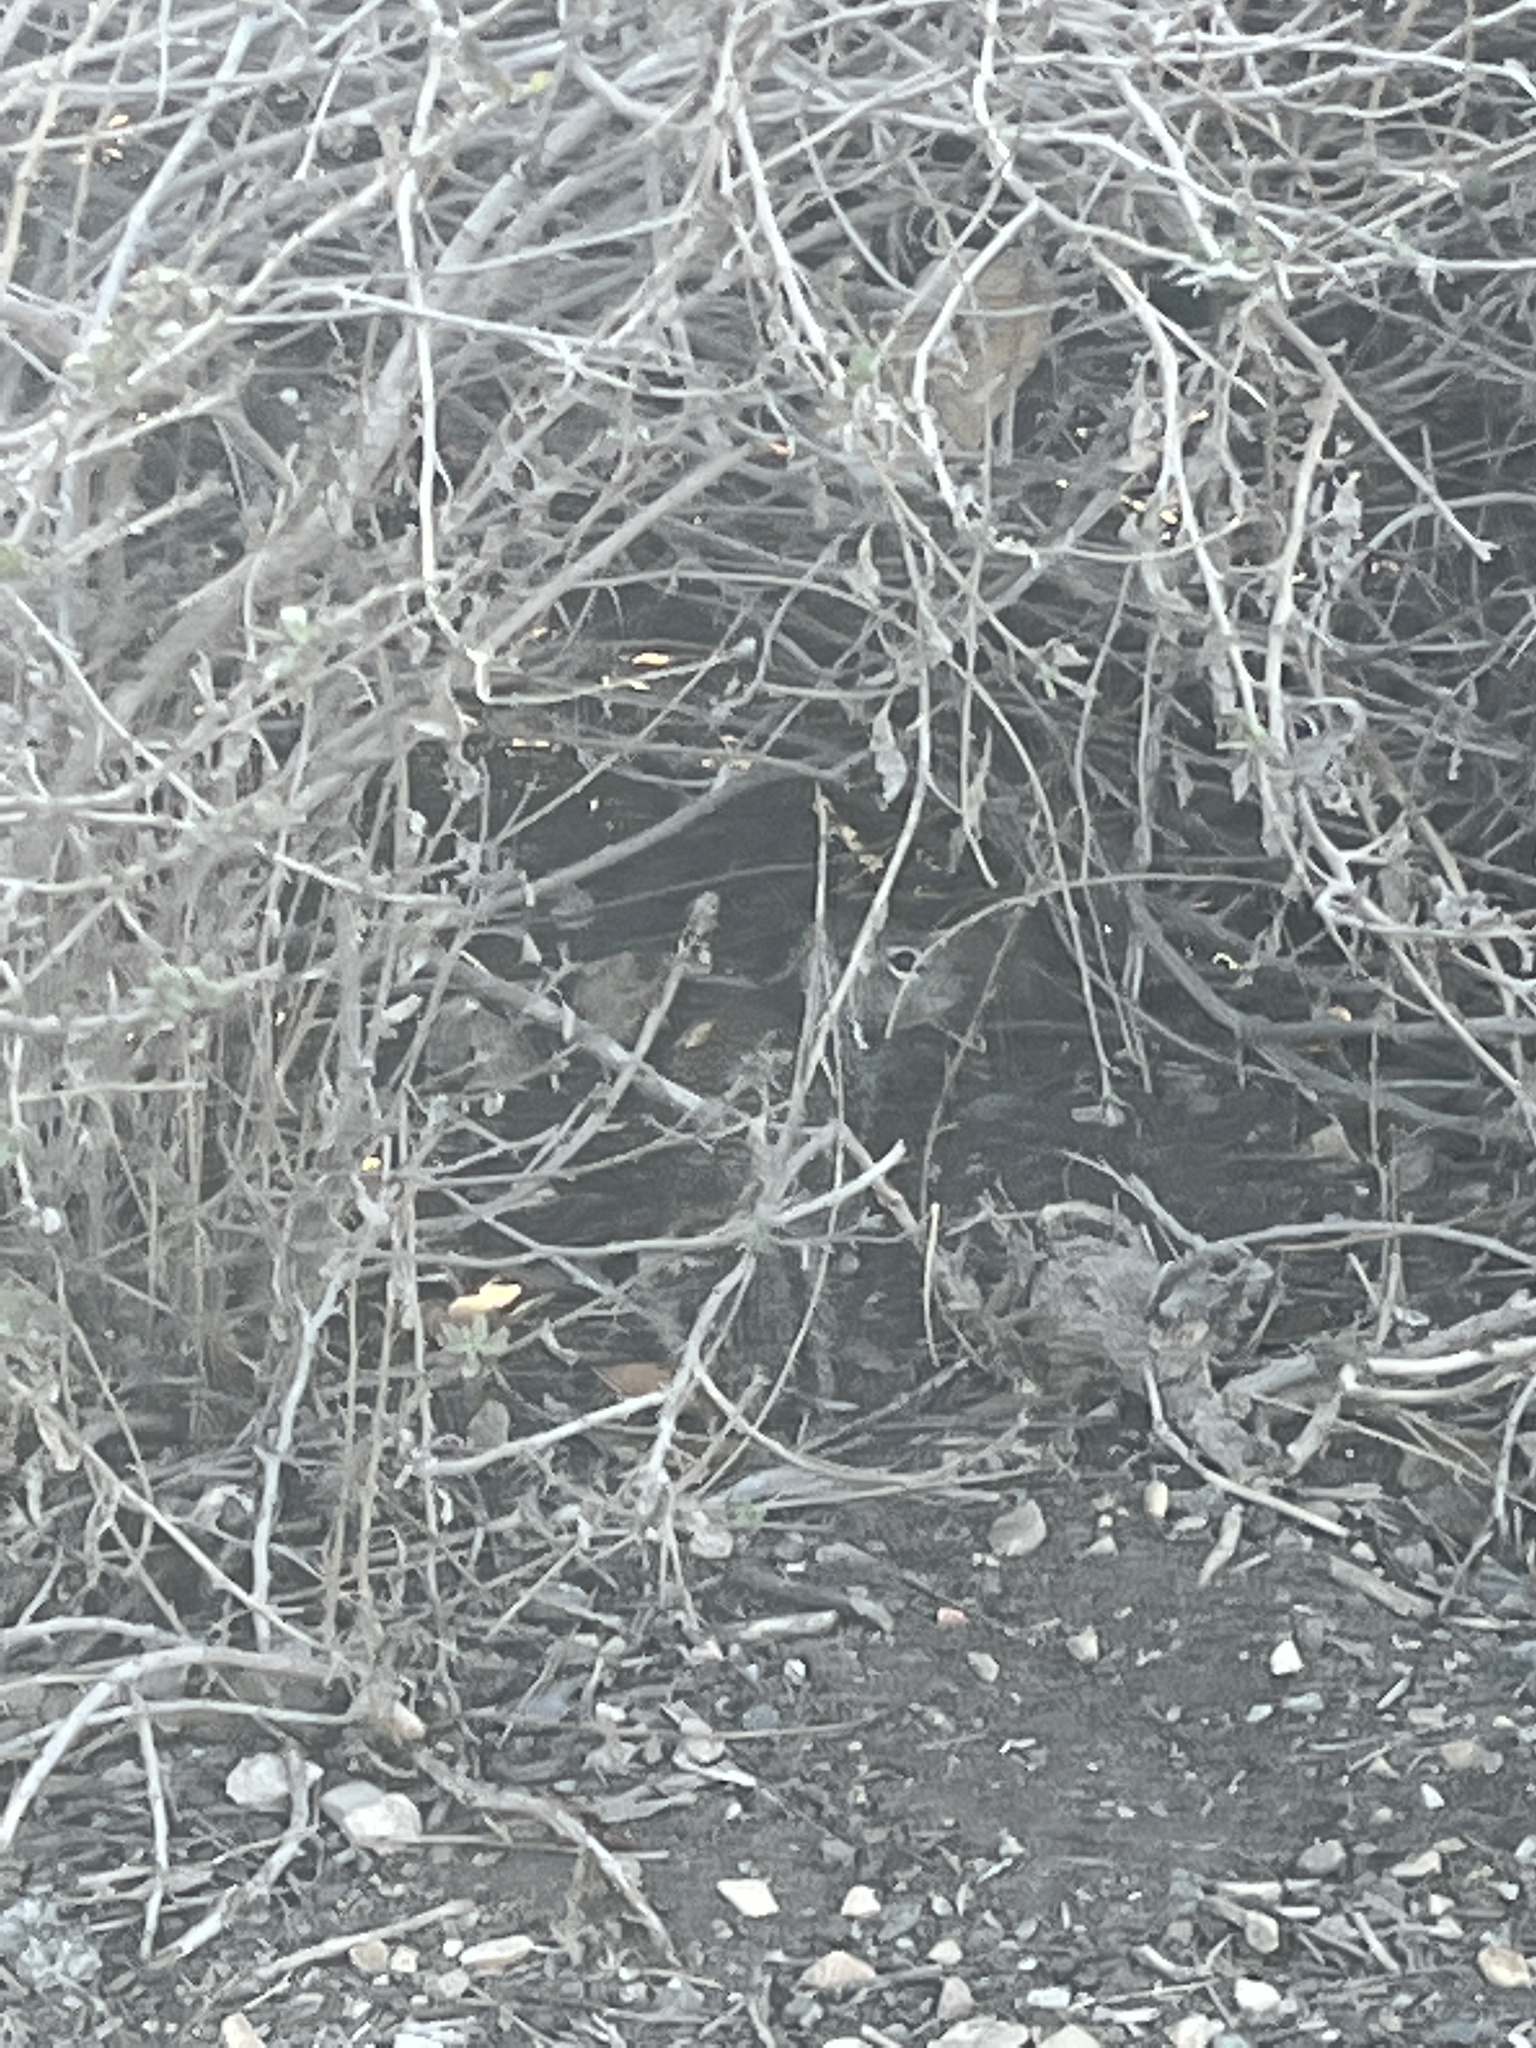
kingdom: Animalia
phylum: Chordata
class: Mammalia
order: Rodentia
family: Sciuridae
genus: Otospermophilus
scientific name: Otospermophilus beecheyi
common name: California ground squirrel
